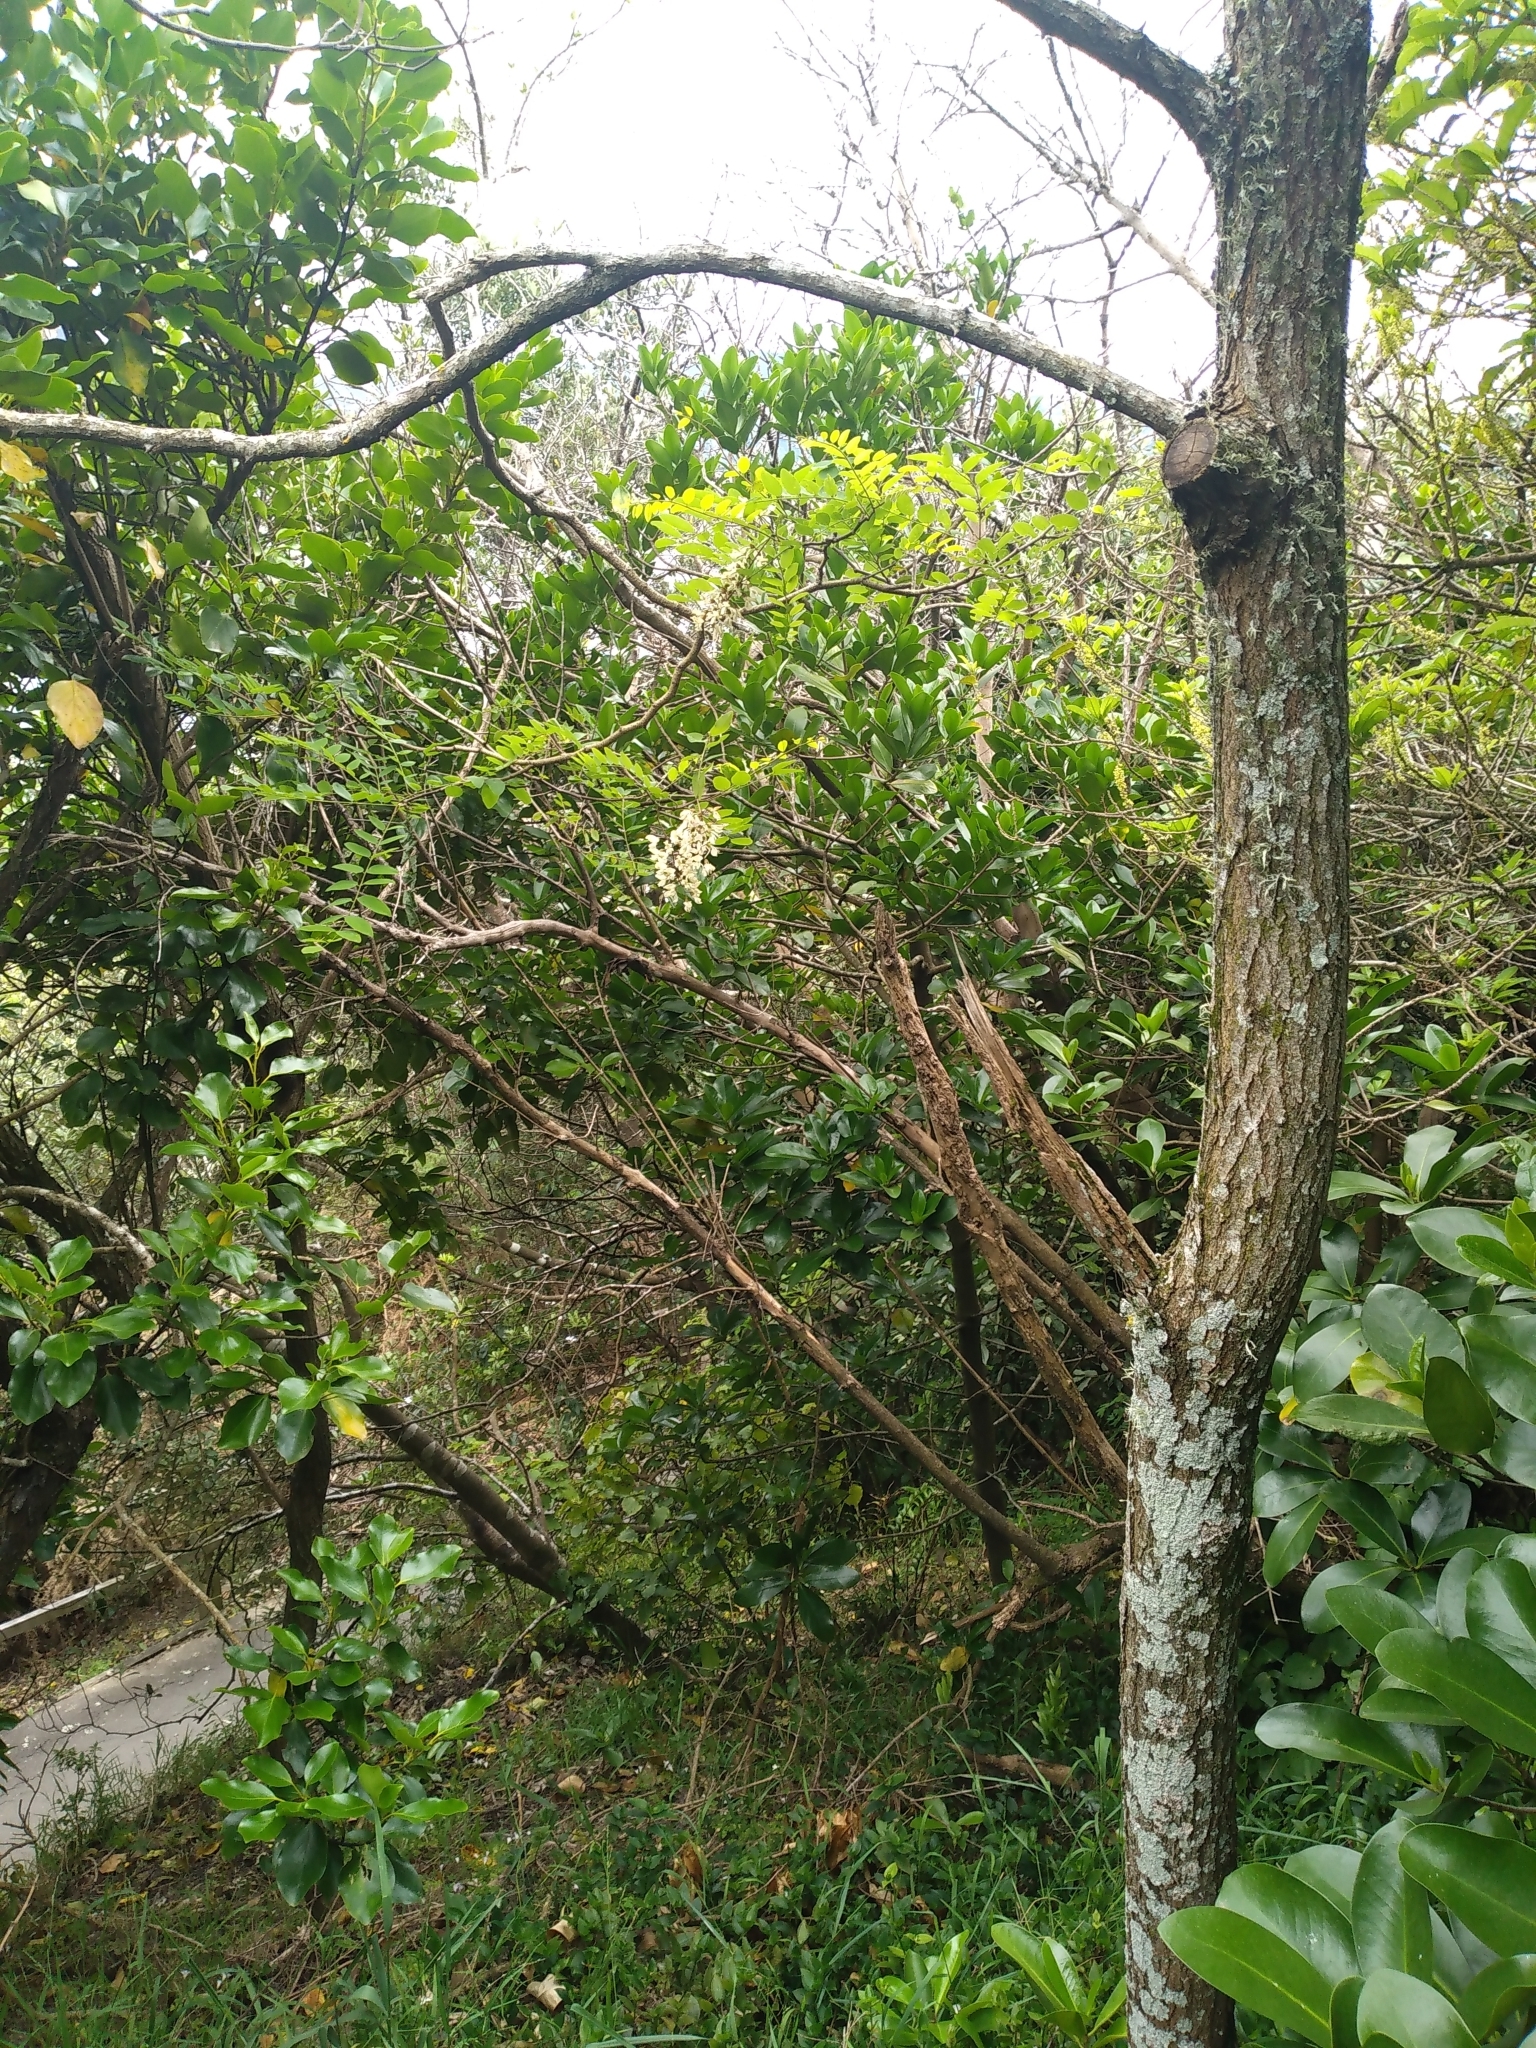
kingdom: Plantae
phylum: Tracheophyta
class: Magnoliopsida
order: Fabales
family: Fabaceae
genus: Robinia
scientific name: Robinia pseudoacacia
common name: Black locust
